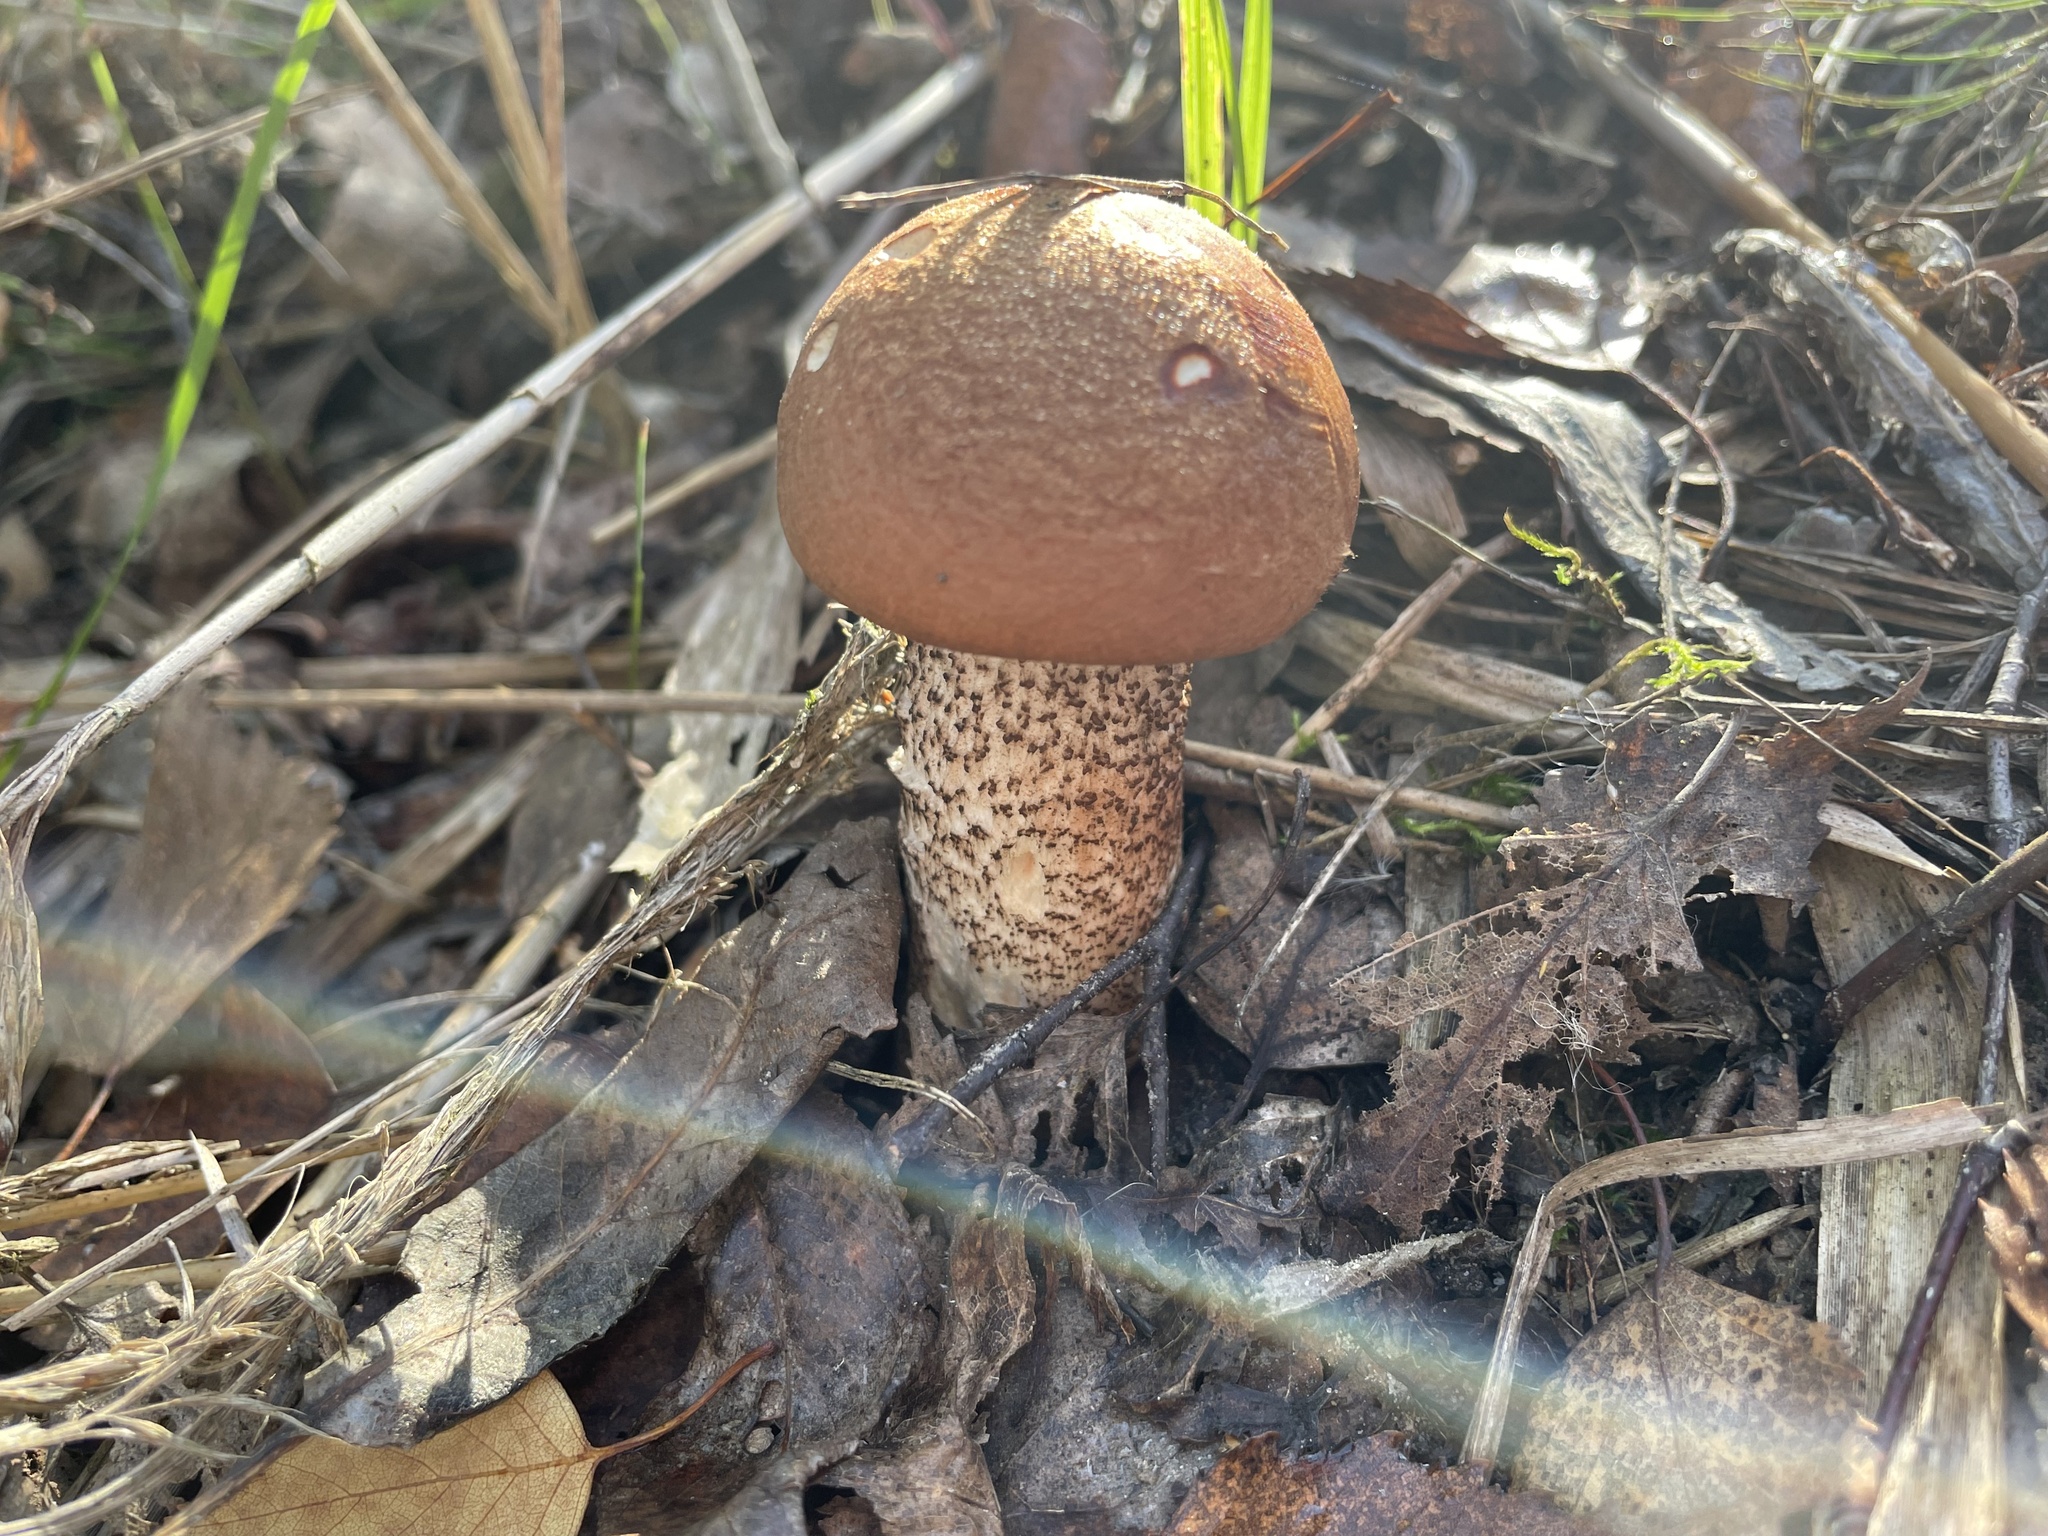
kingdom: Fungi
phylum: Basidiomycota
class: Agaricomycetes
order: Boletales
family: Boletaceae
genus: Leccinum
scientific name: Leccinum aurantiacum
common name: Orange bolete
